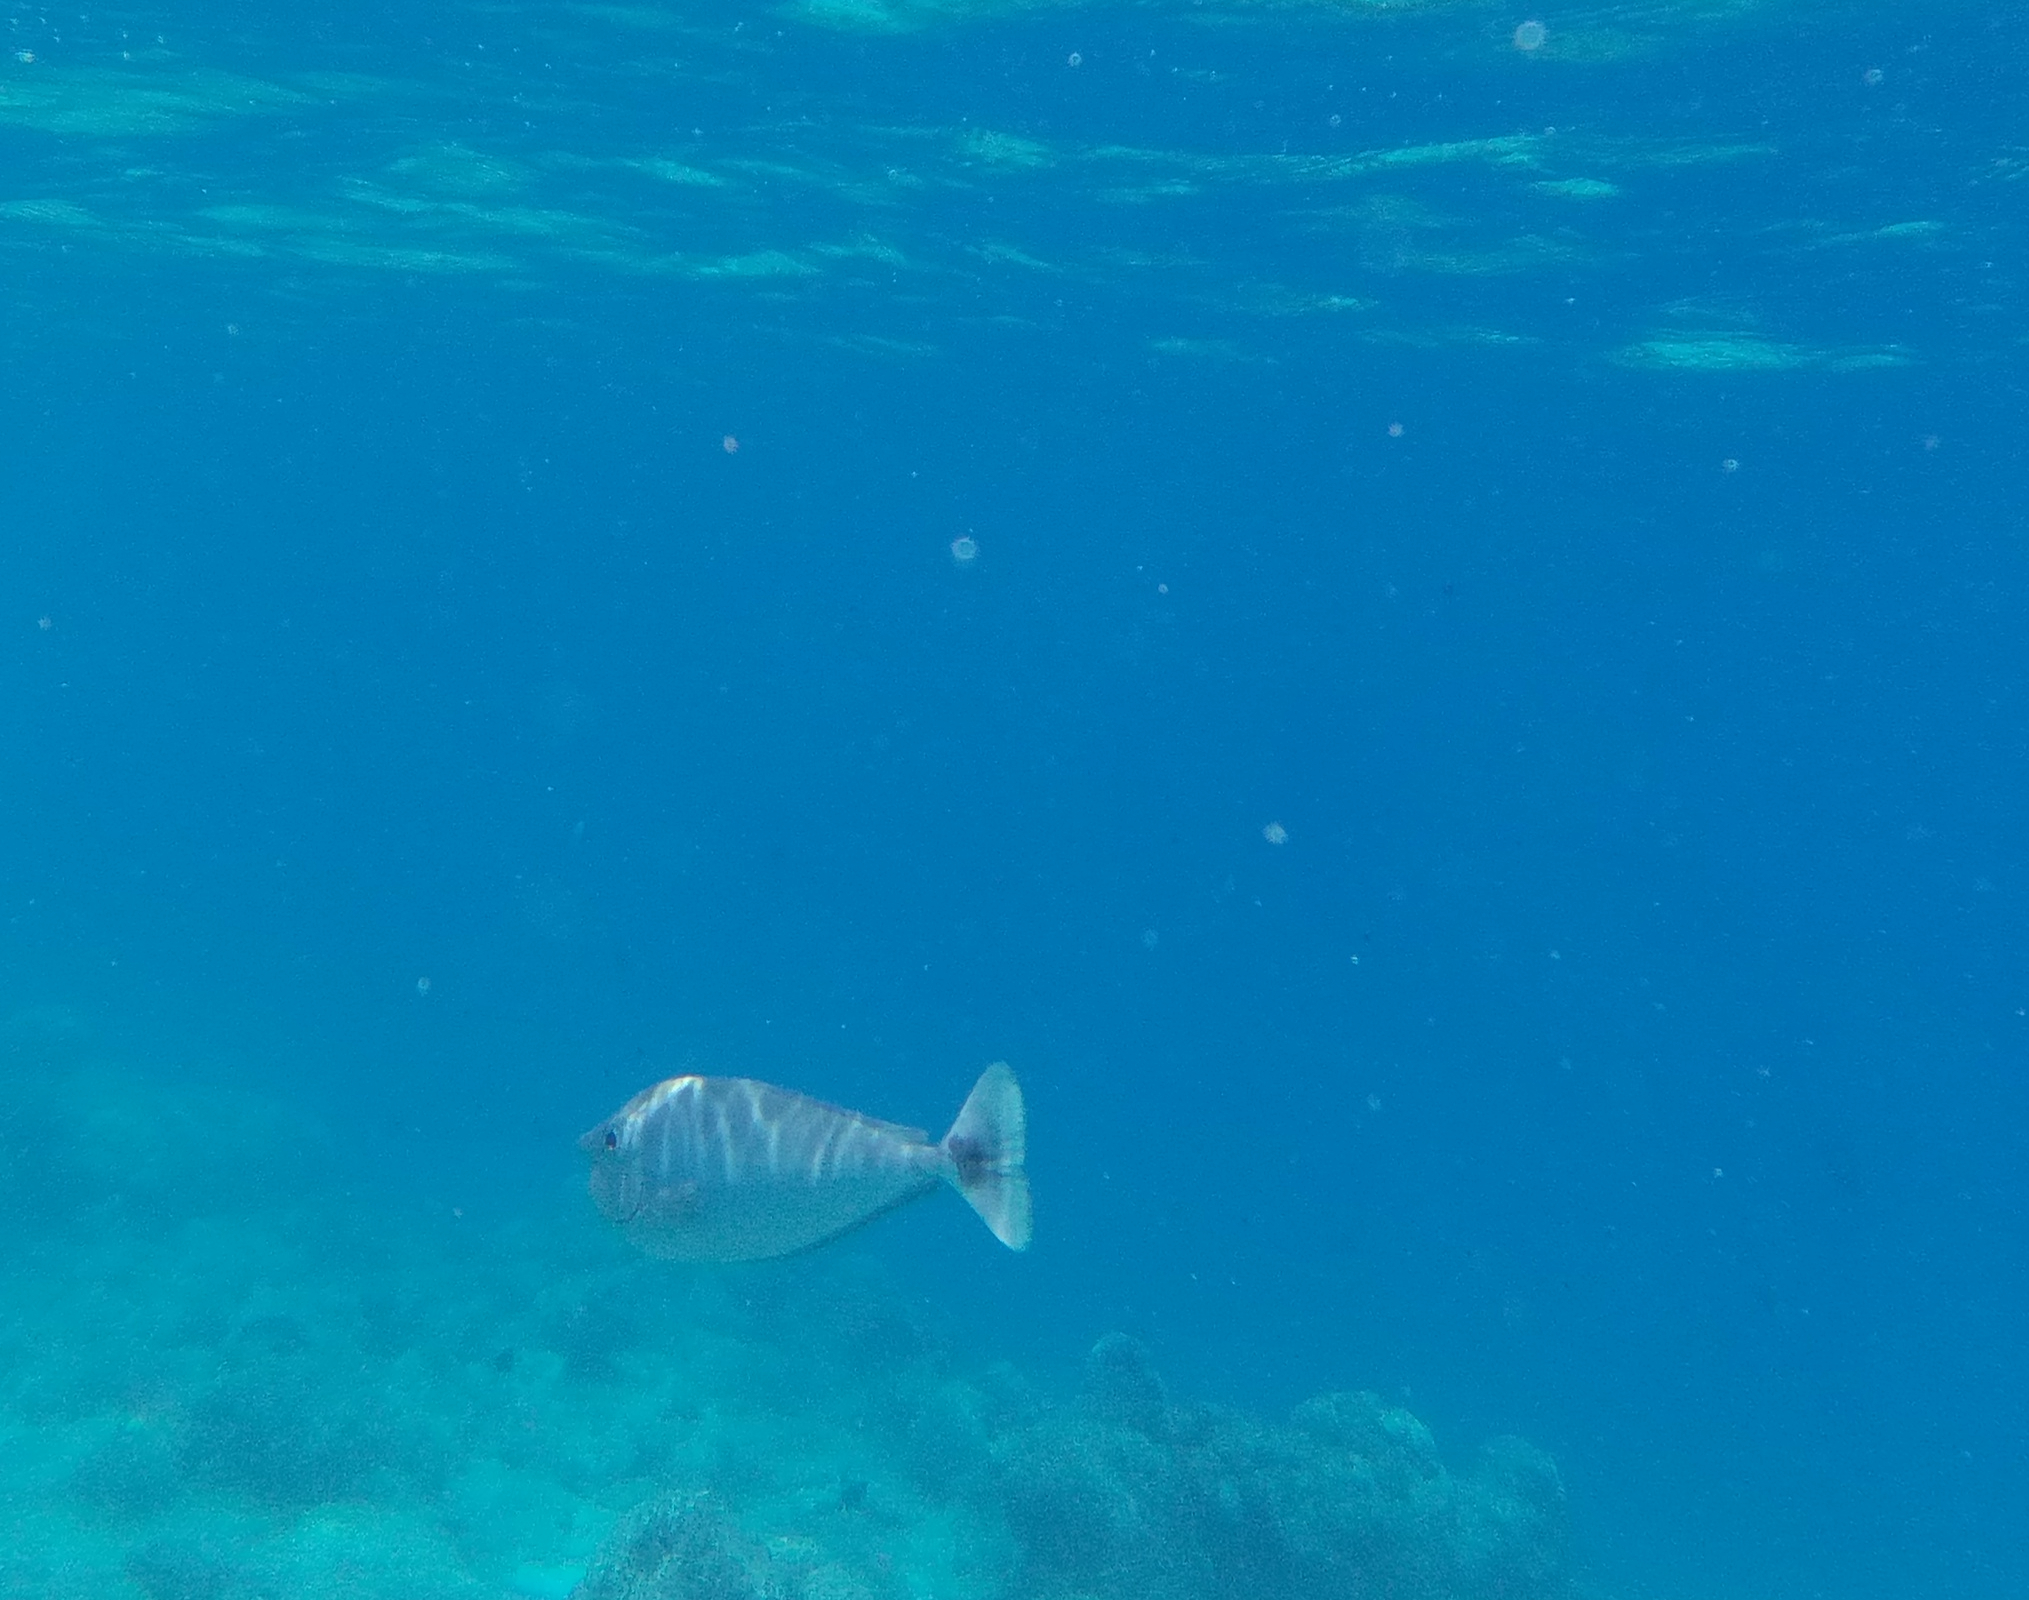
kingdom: Animalia
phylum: Chordata
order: Perciformes
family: Acanthuridae
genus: Naso
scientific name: Naso brevirostris
